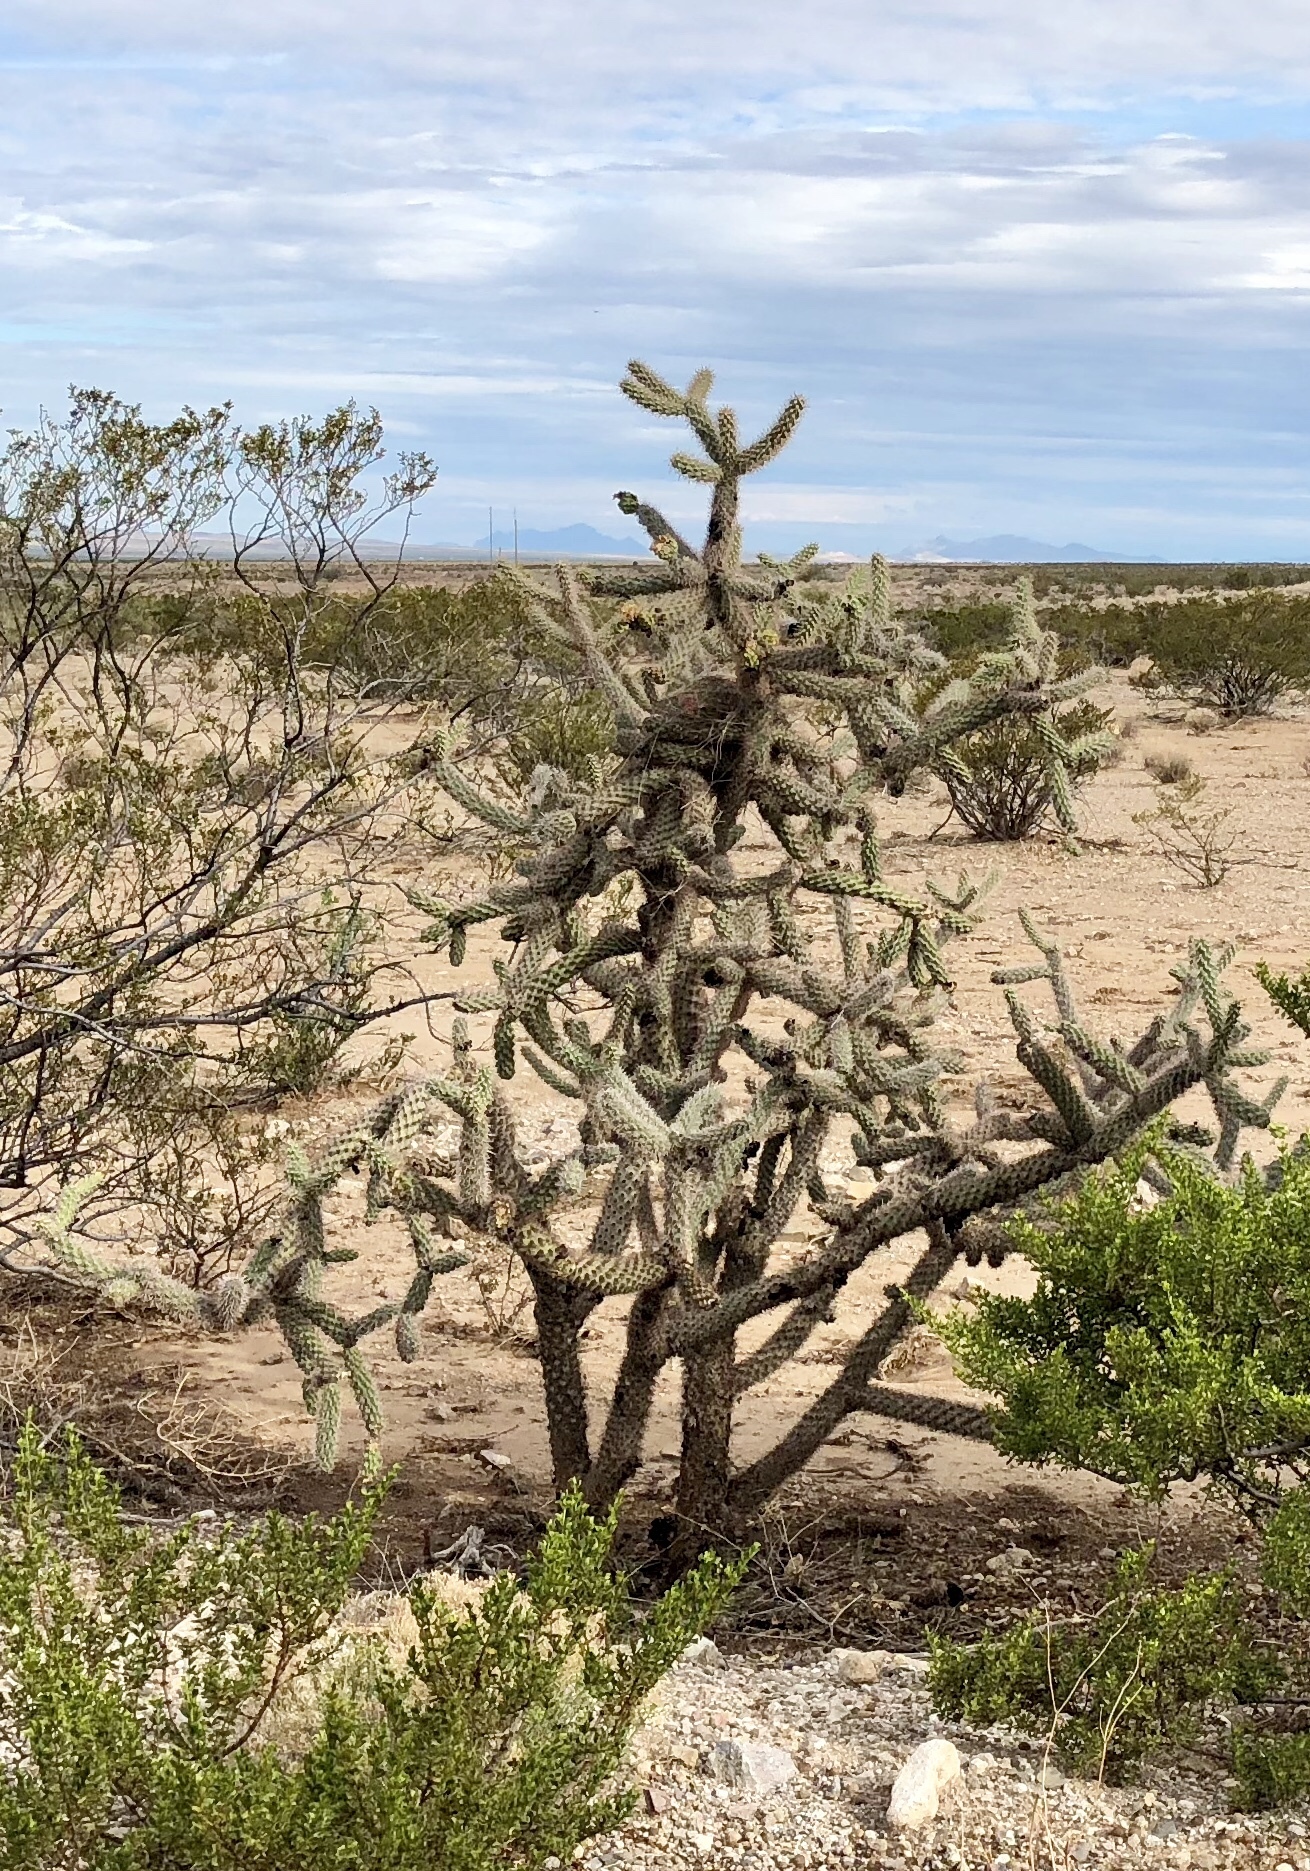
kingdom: Plantae
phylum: Tracheophyta
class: Magnoliopsida
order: Caryophyllales
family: Cactaceae
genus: Cylindropuntia
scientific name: Cylindropuntia imbricata
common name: Candelabrum cactus
